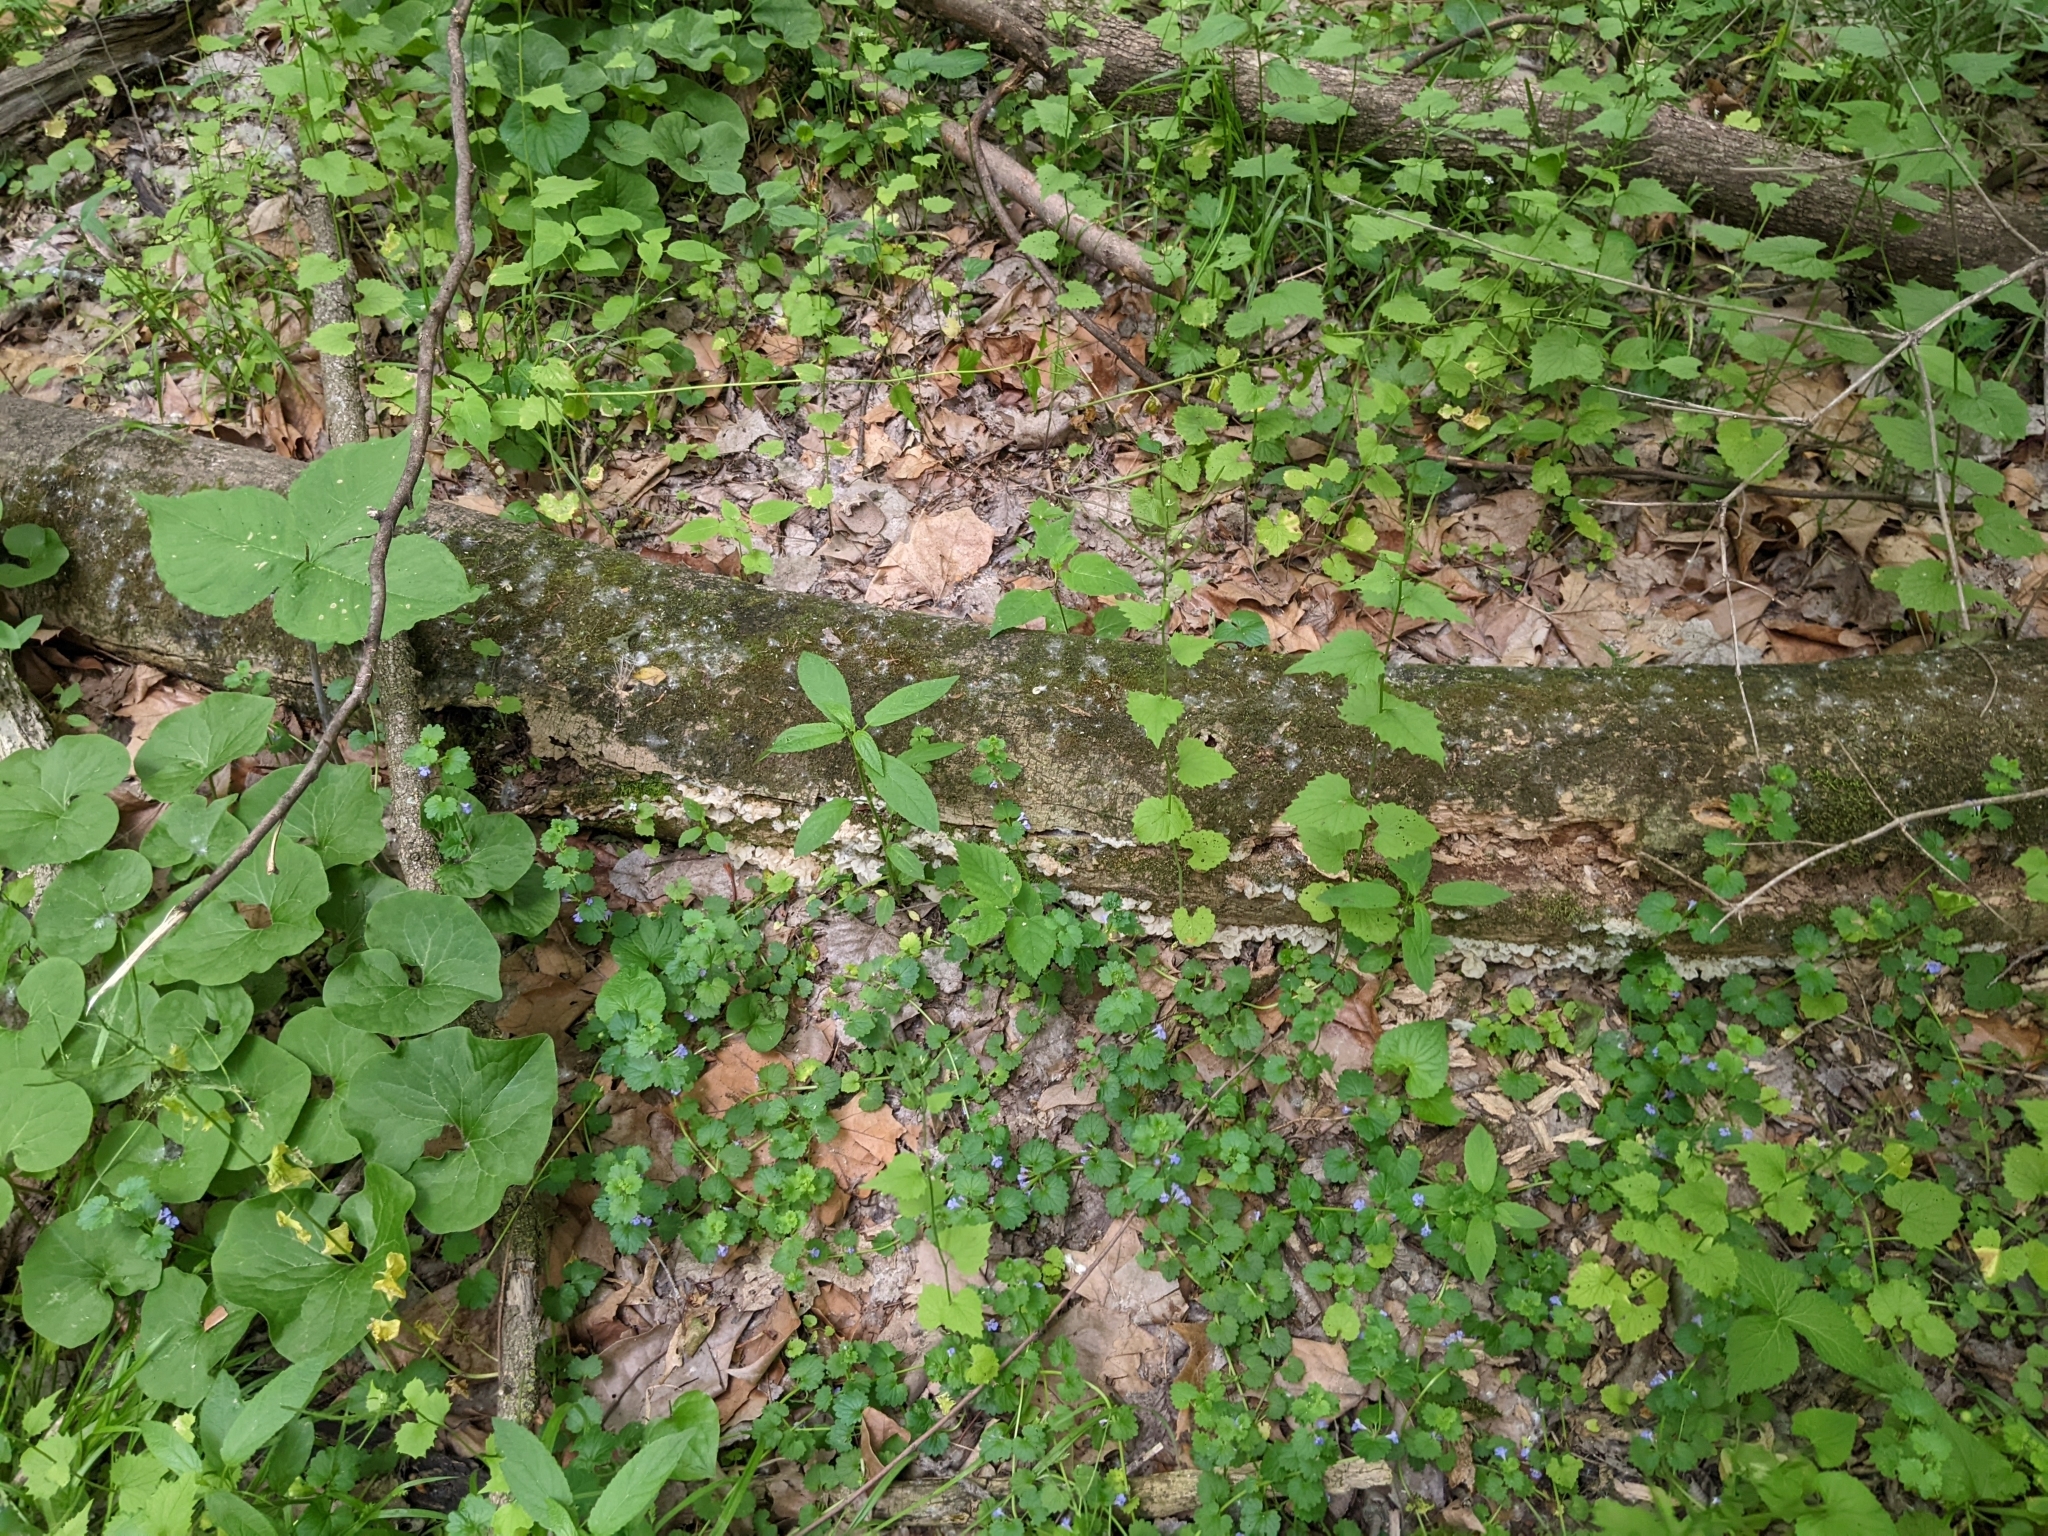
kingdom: Fungi
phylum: Basidiomycota
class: Agaricomycetes
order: Auriculariales
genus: Ductifera
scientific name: Ductifera pululahuana
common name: White jelly fungus
